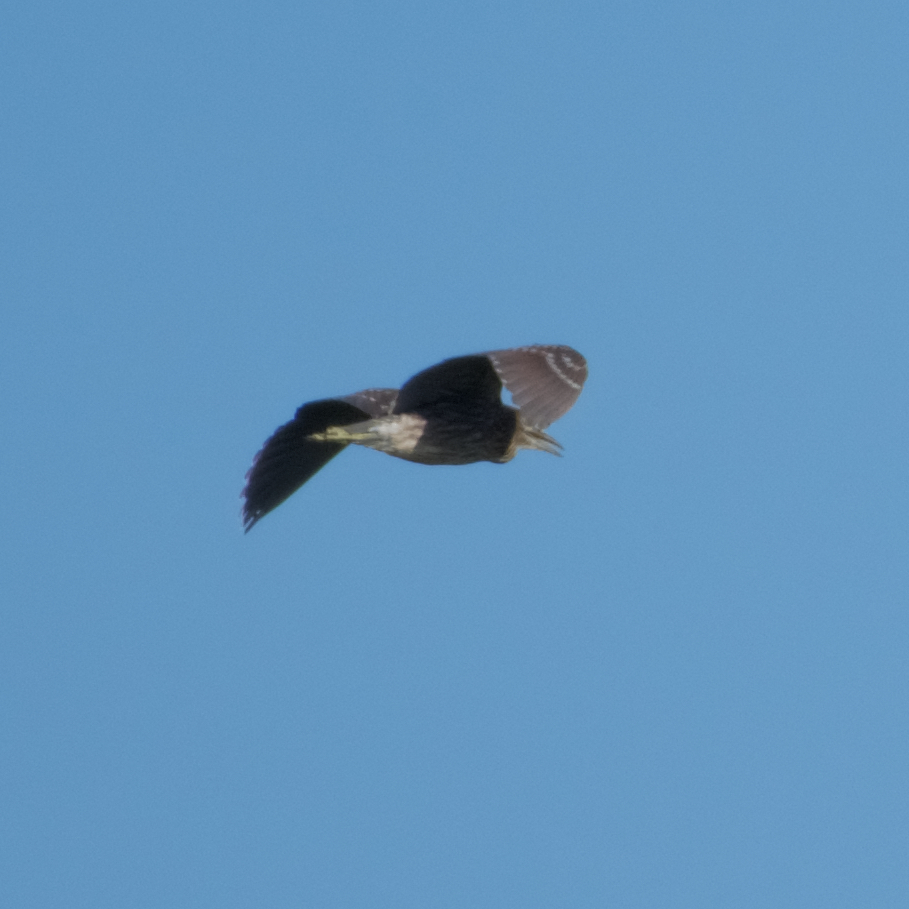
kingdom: Animalia
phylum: Chordata
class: Aves
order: Pelecaniformes
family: Ardeidae
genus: Nycticorax
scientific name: Nycticorax nycticorax
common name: Black-crowned night heron
